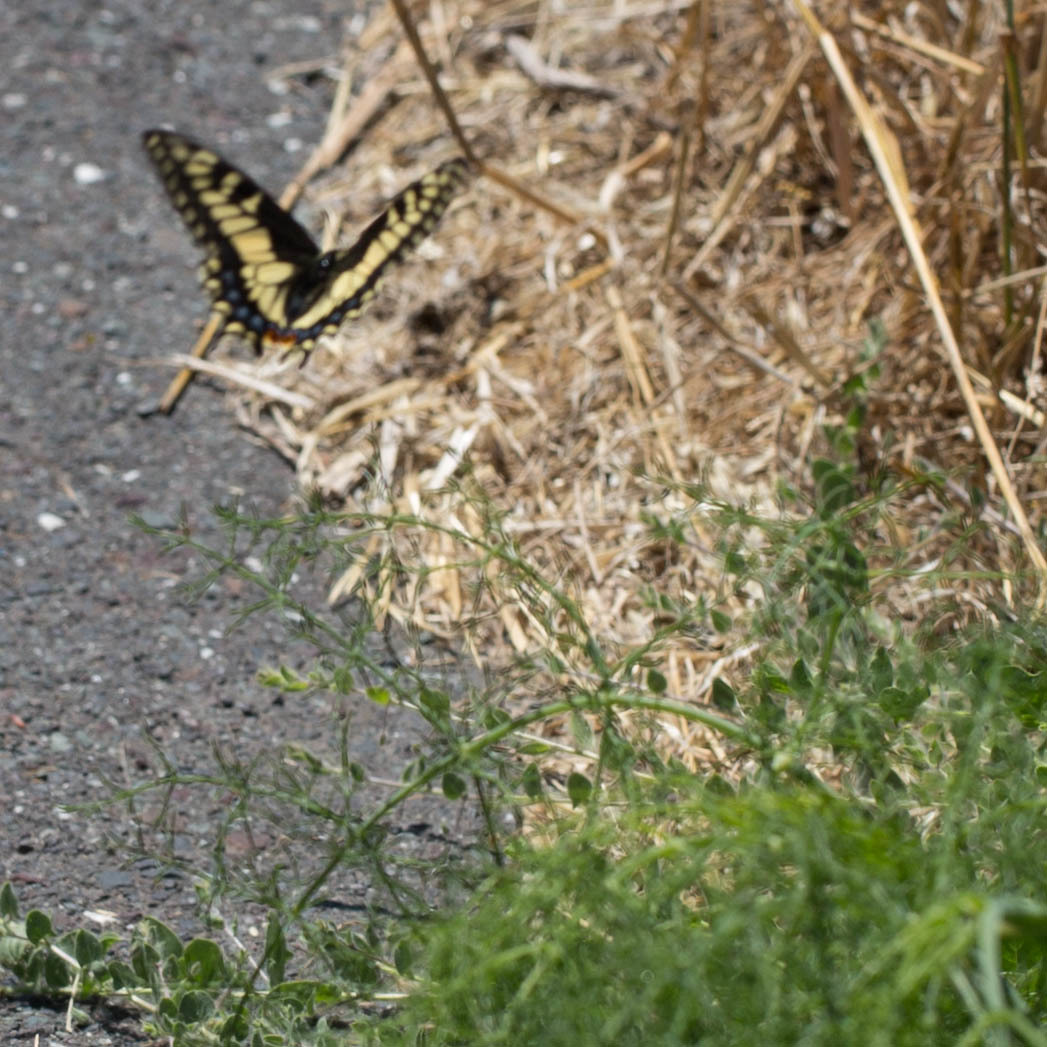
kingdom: Animalia
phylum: Arthropoda
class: Insecta
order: Lepidoptera
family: Papilionidae
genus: Papilio
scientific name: Papilio zelicaon
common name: Anise swallowtail
